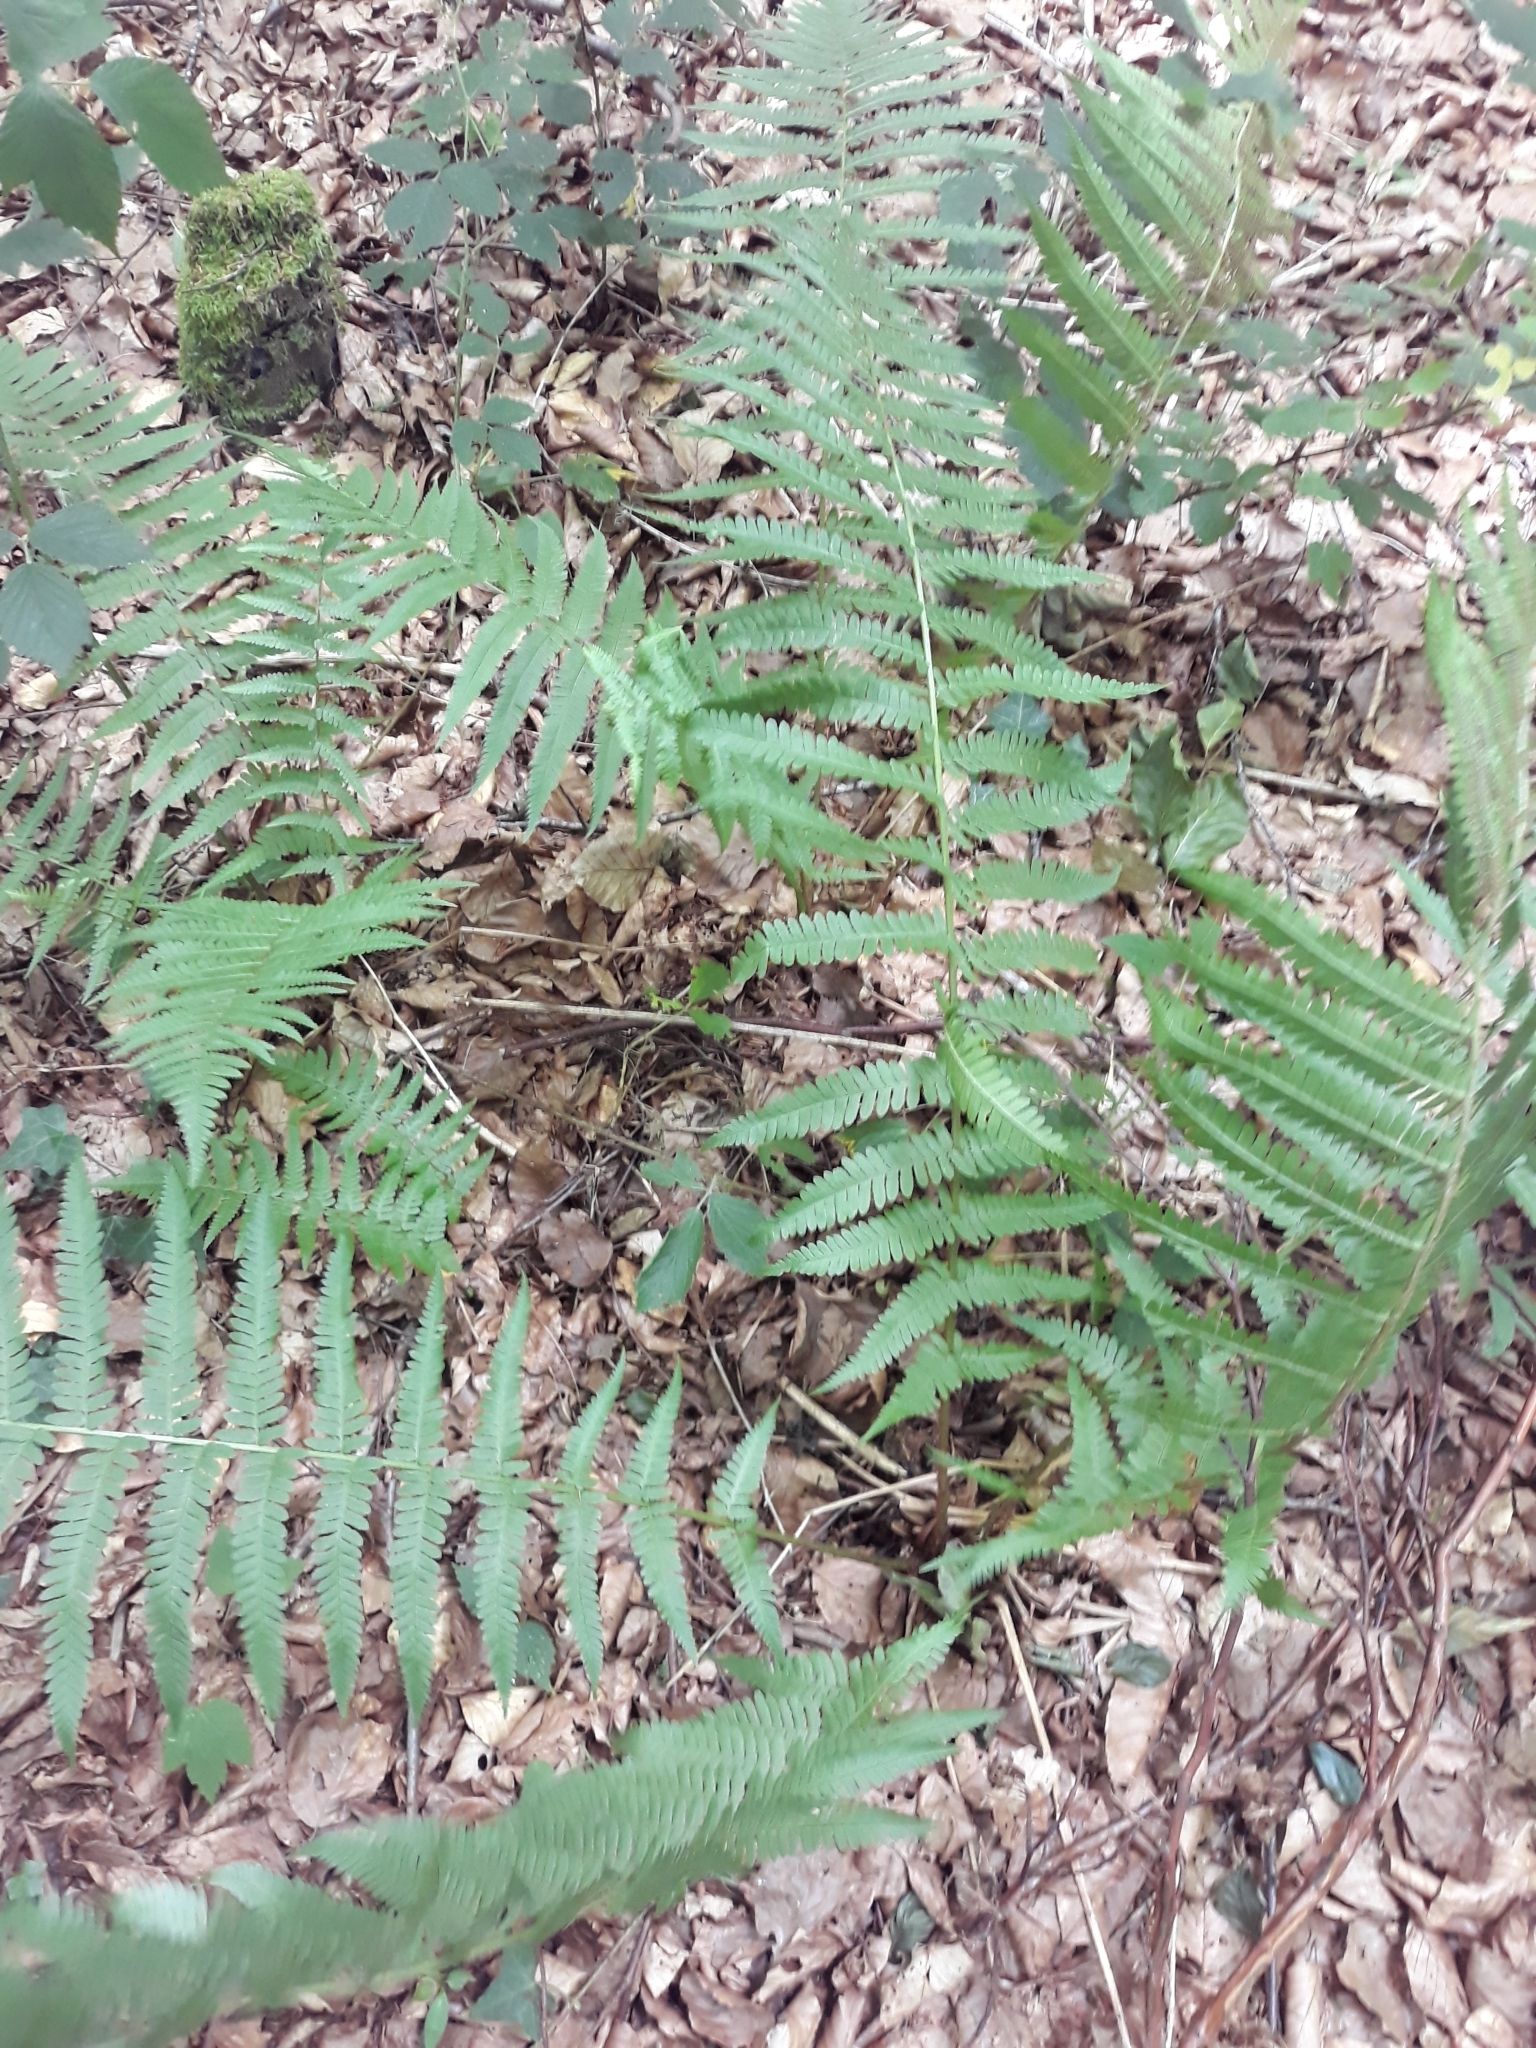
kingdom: Plantae
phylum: Tracheophyta
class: Polypodiopsida
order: Polypodiales
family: Dryopteridaceae
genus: Dryopteris
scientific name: Dryopteris filix-mas
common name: Male fern
